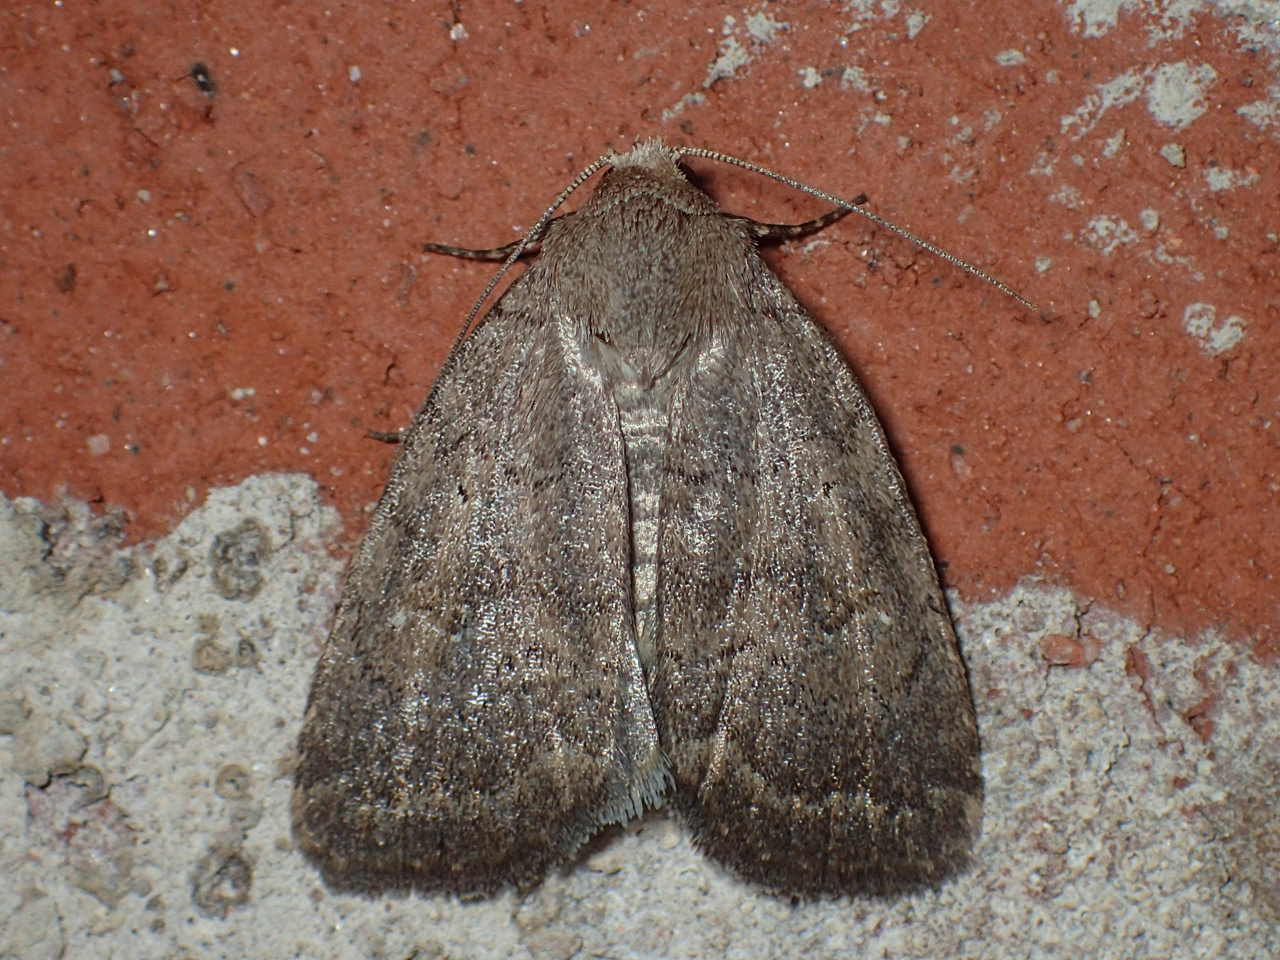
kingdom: Animalia
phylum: Arthropoda
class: Insecta
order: Lepidoptera
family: Noctuidae
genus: Athetis
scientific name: Athetis tarda
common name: Slowpoke moth
